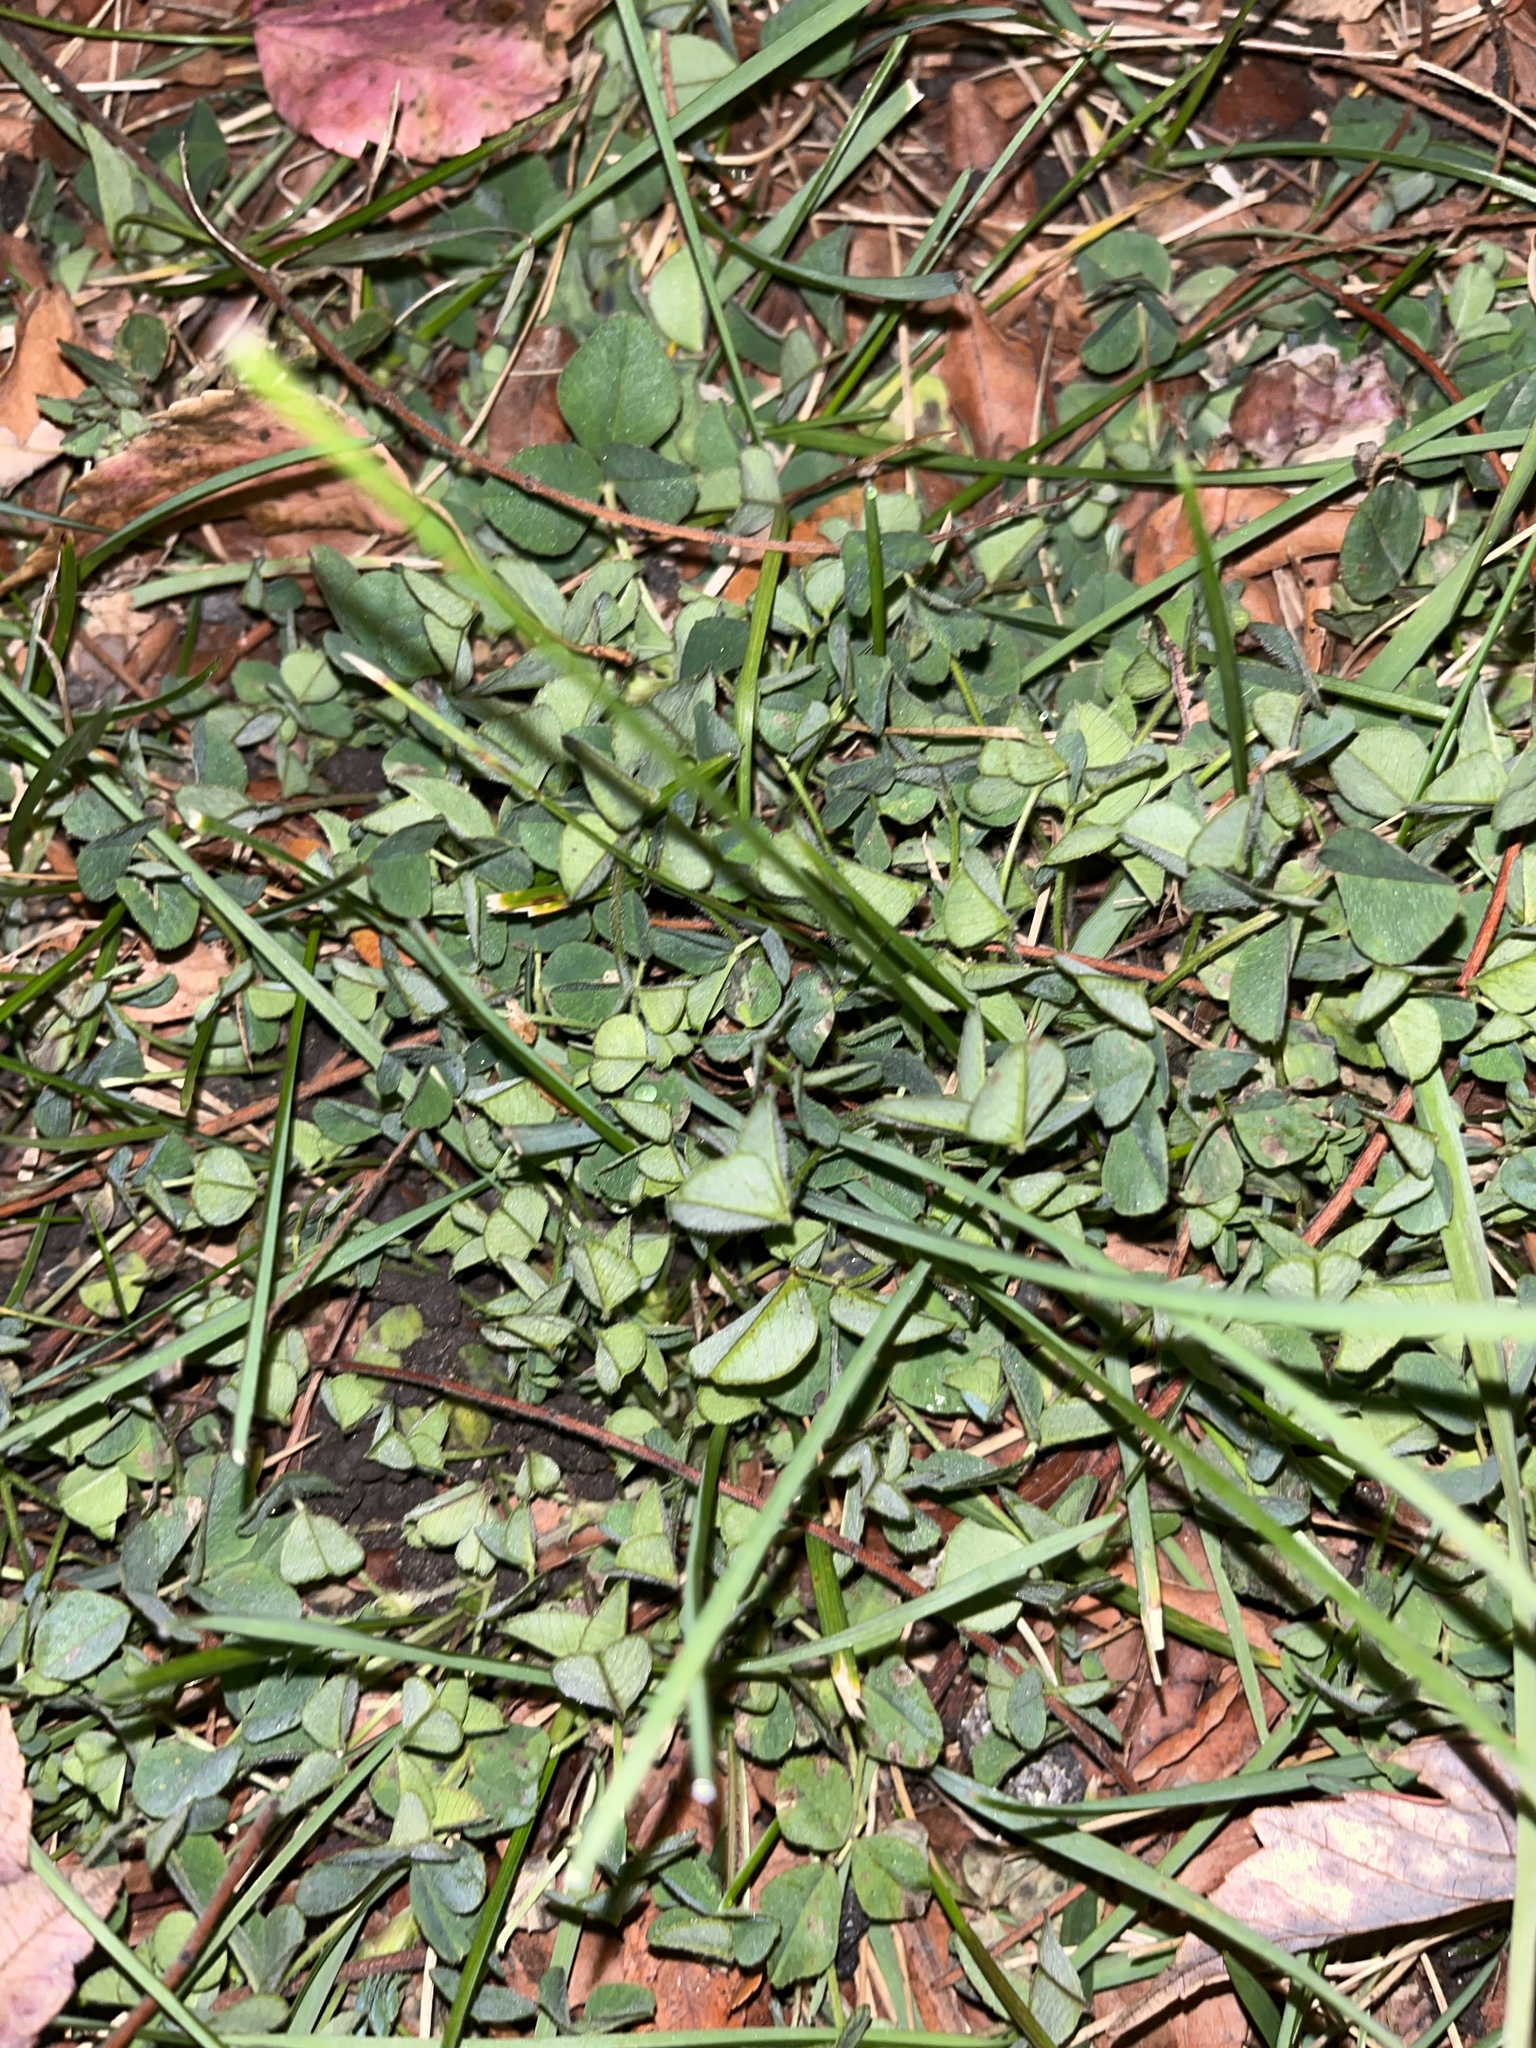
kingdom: Plantae
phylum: Tracheophyta
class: Magnoliopsida
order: Fabales
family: Fabaceae
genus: Trifolium
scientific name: Trifolium repens
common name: White clover
